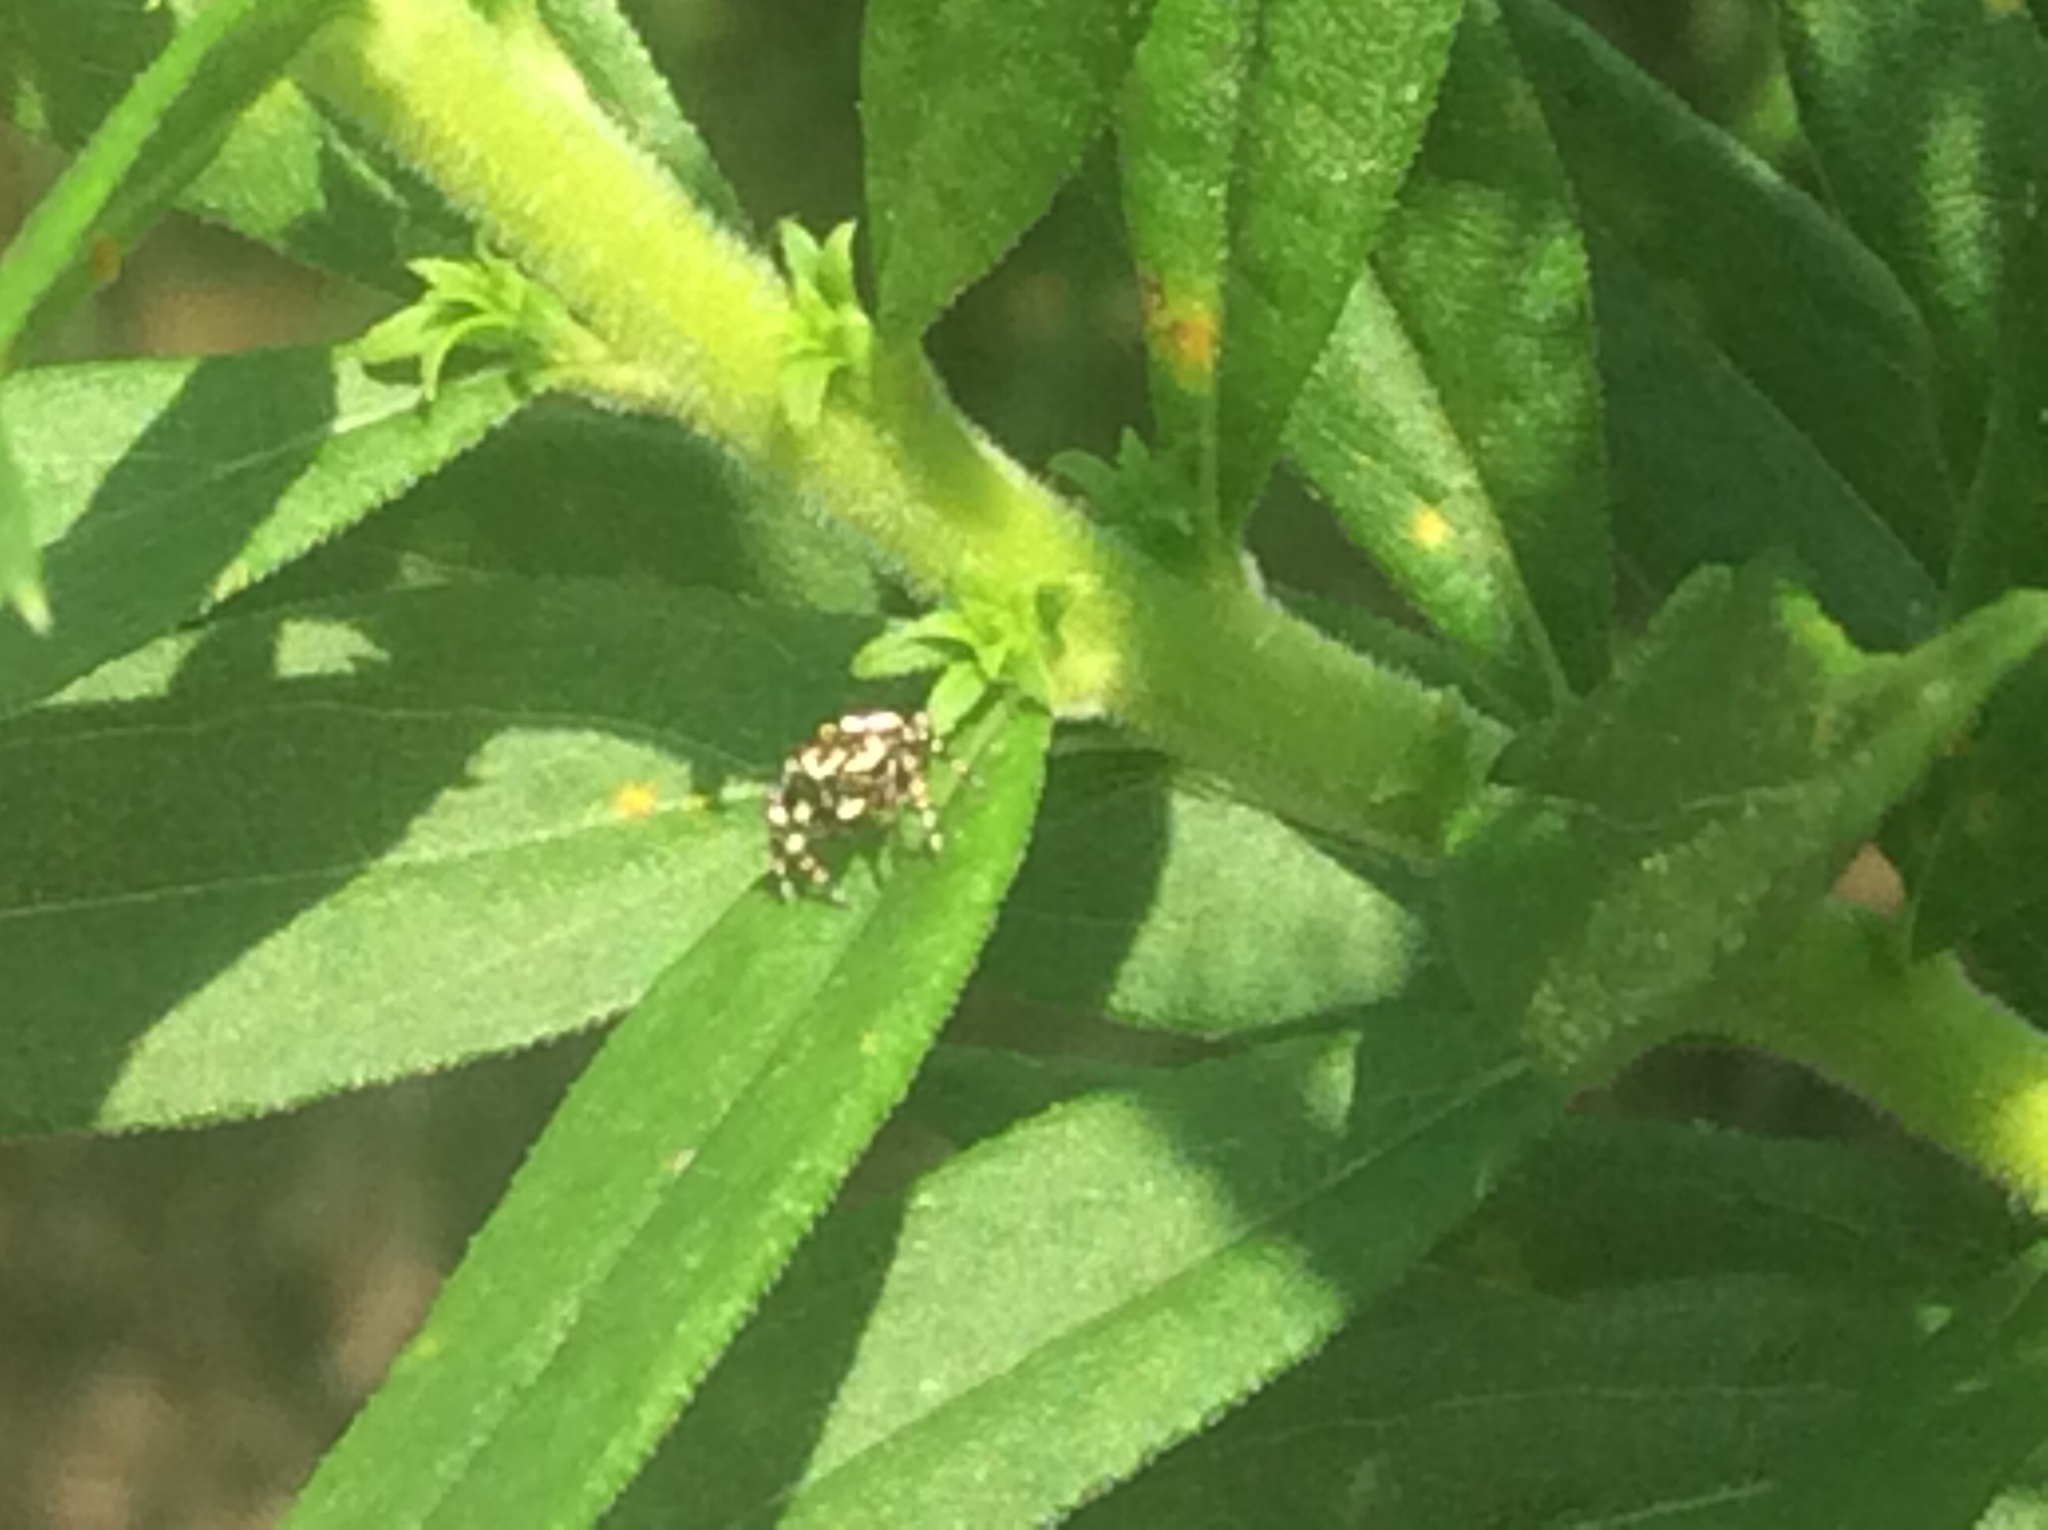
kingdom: Animalia
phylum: Arthropoda
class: Arachnida
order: Araneae
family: Salticidae
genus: Pelegrina
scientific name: Pelegrina galathea
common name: Jumping spiders
